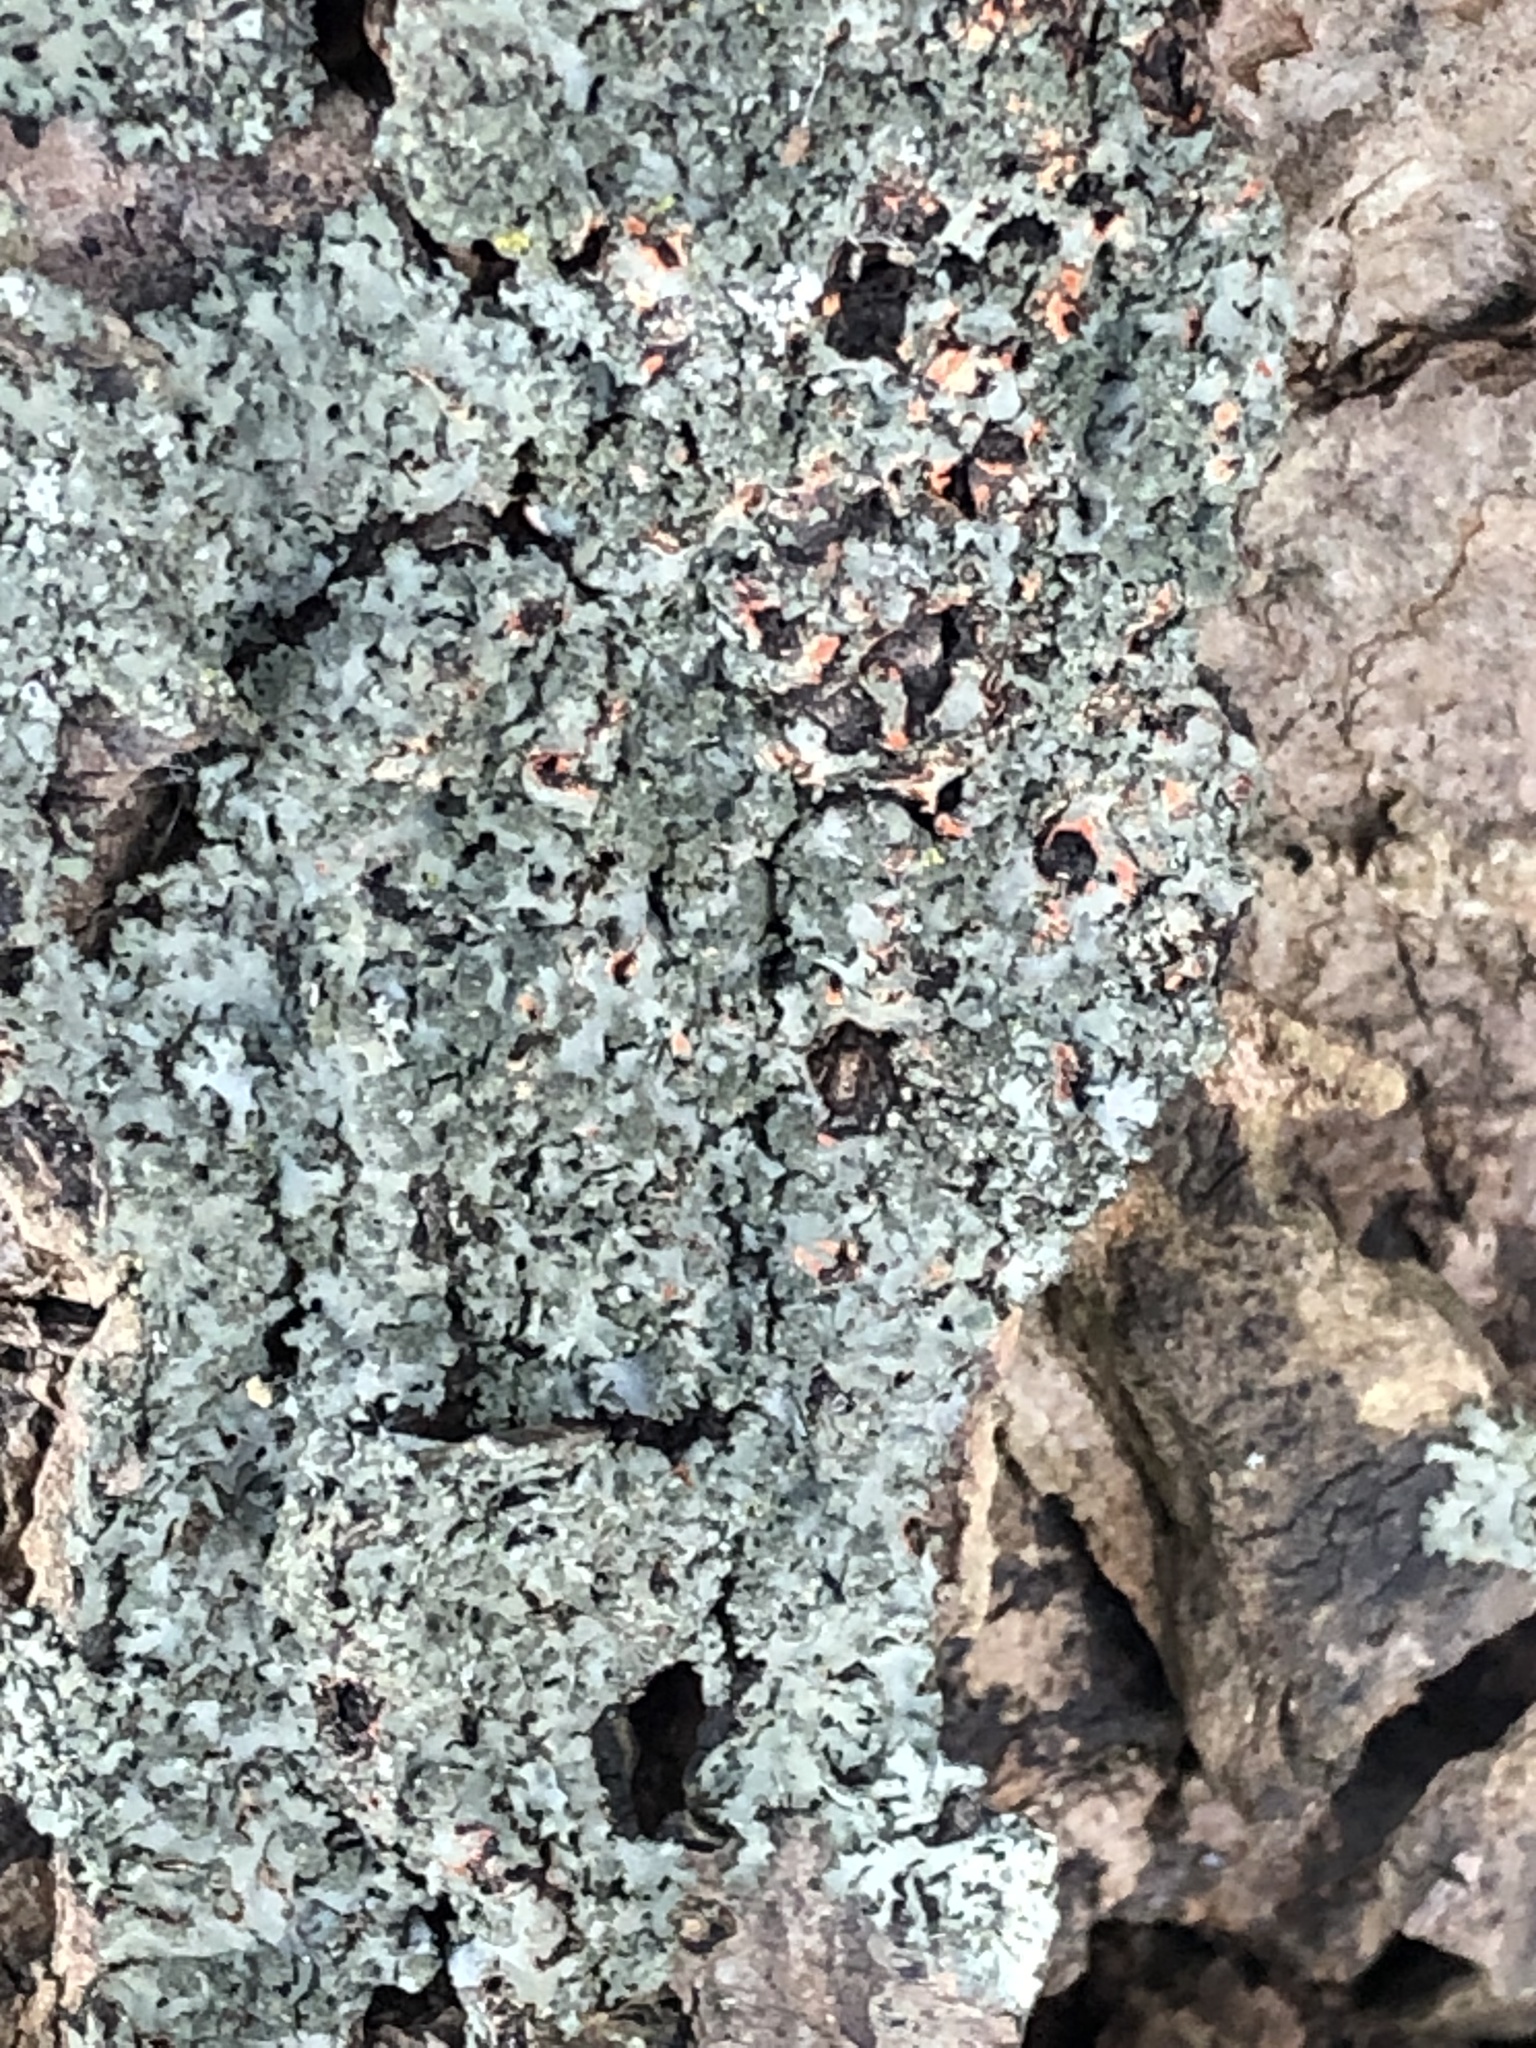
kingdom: Fungi
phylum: Ascomycota
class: Lecanoromycetes
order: Caliciales
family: Physciaceae
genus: Phaeophyscia
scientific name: Phaeophyscia rubropulchra
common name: Orange-cored shadow lichen
